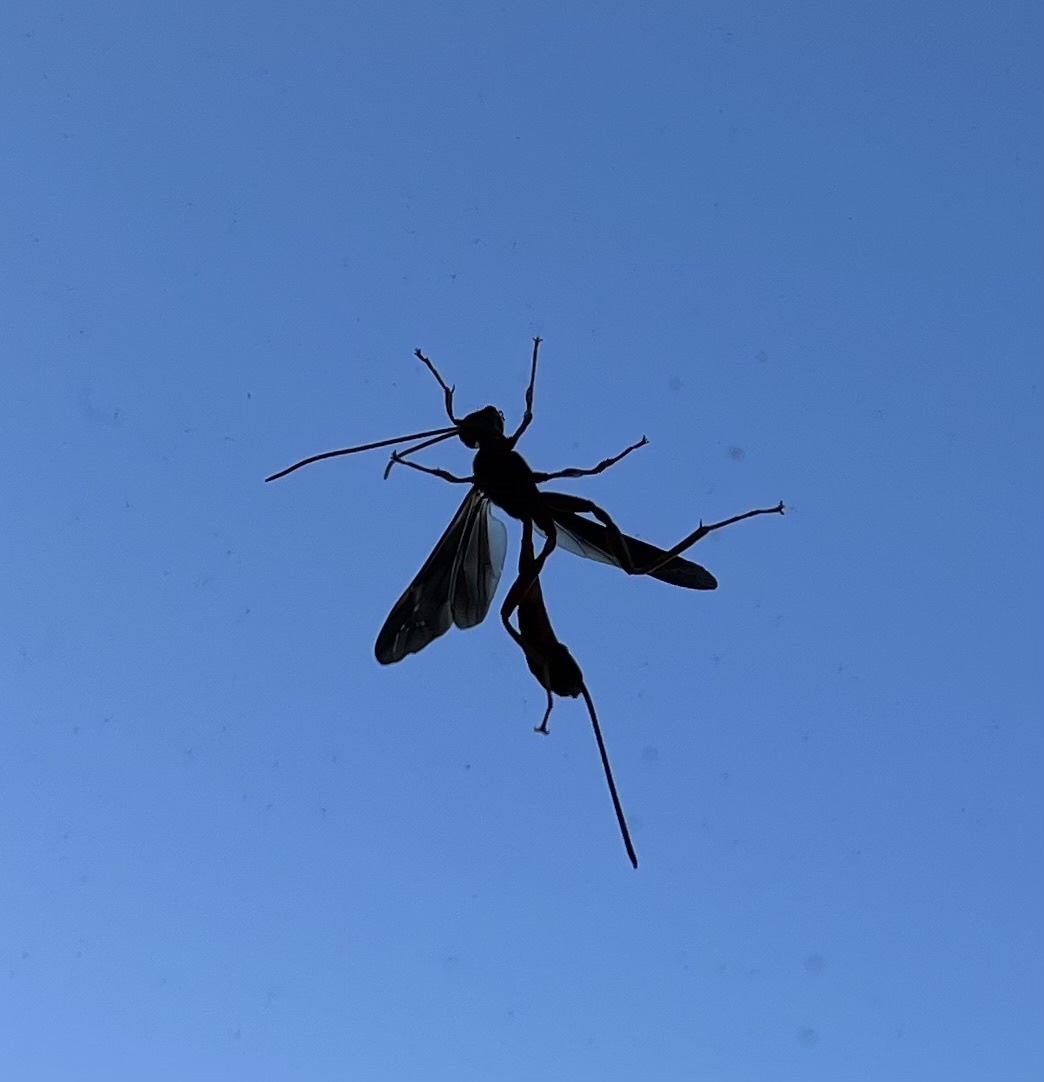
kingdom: Animalia
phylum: Arthropoda
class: Insecta
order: Hymenoptera
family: Ichneumonidae
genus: Labena
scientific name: Labena grallator
